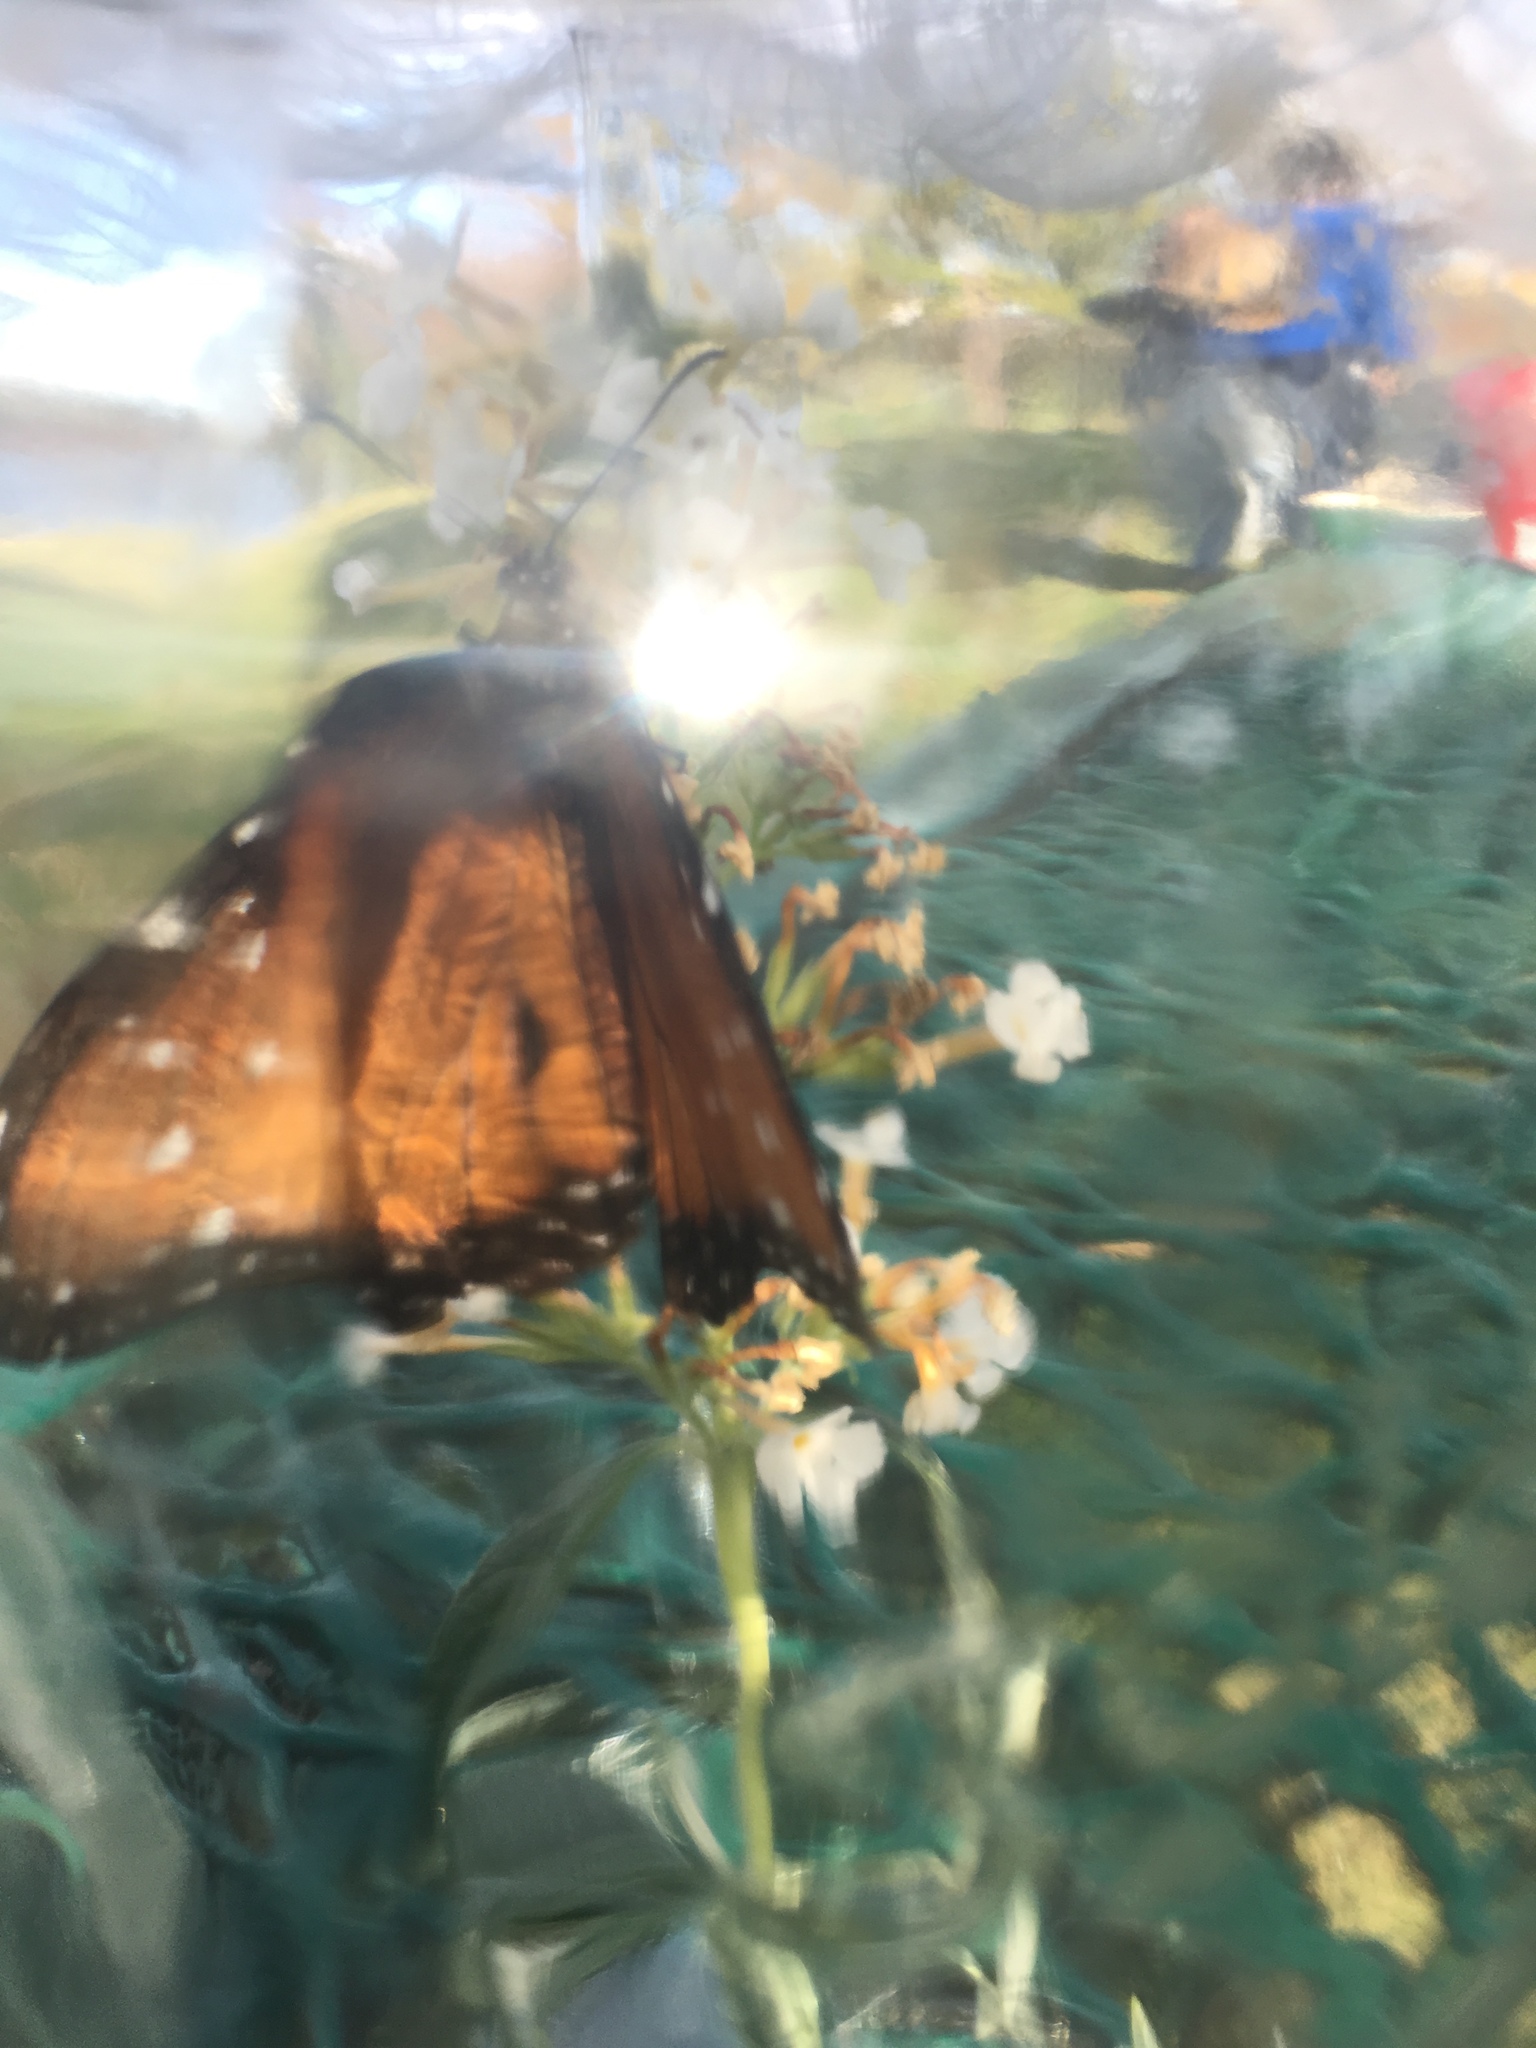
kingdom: Animalia
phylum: Arthropoda
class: Insecta
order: Lepidoptera
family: Nymphalidae
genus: Danaus
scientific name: Danaus gilippus
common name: Queen
